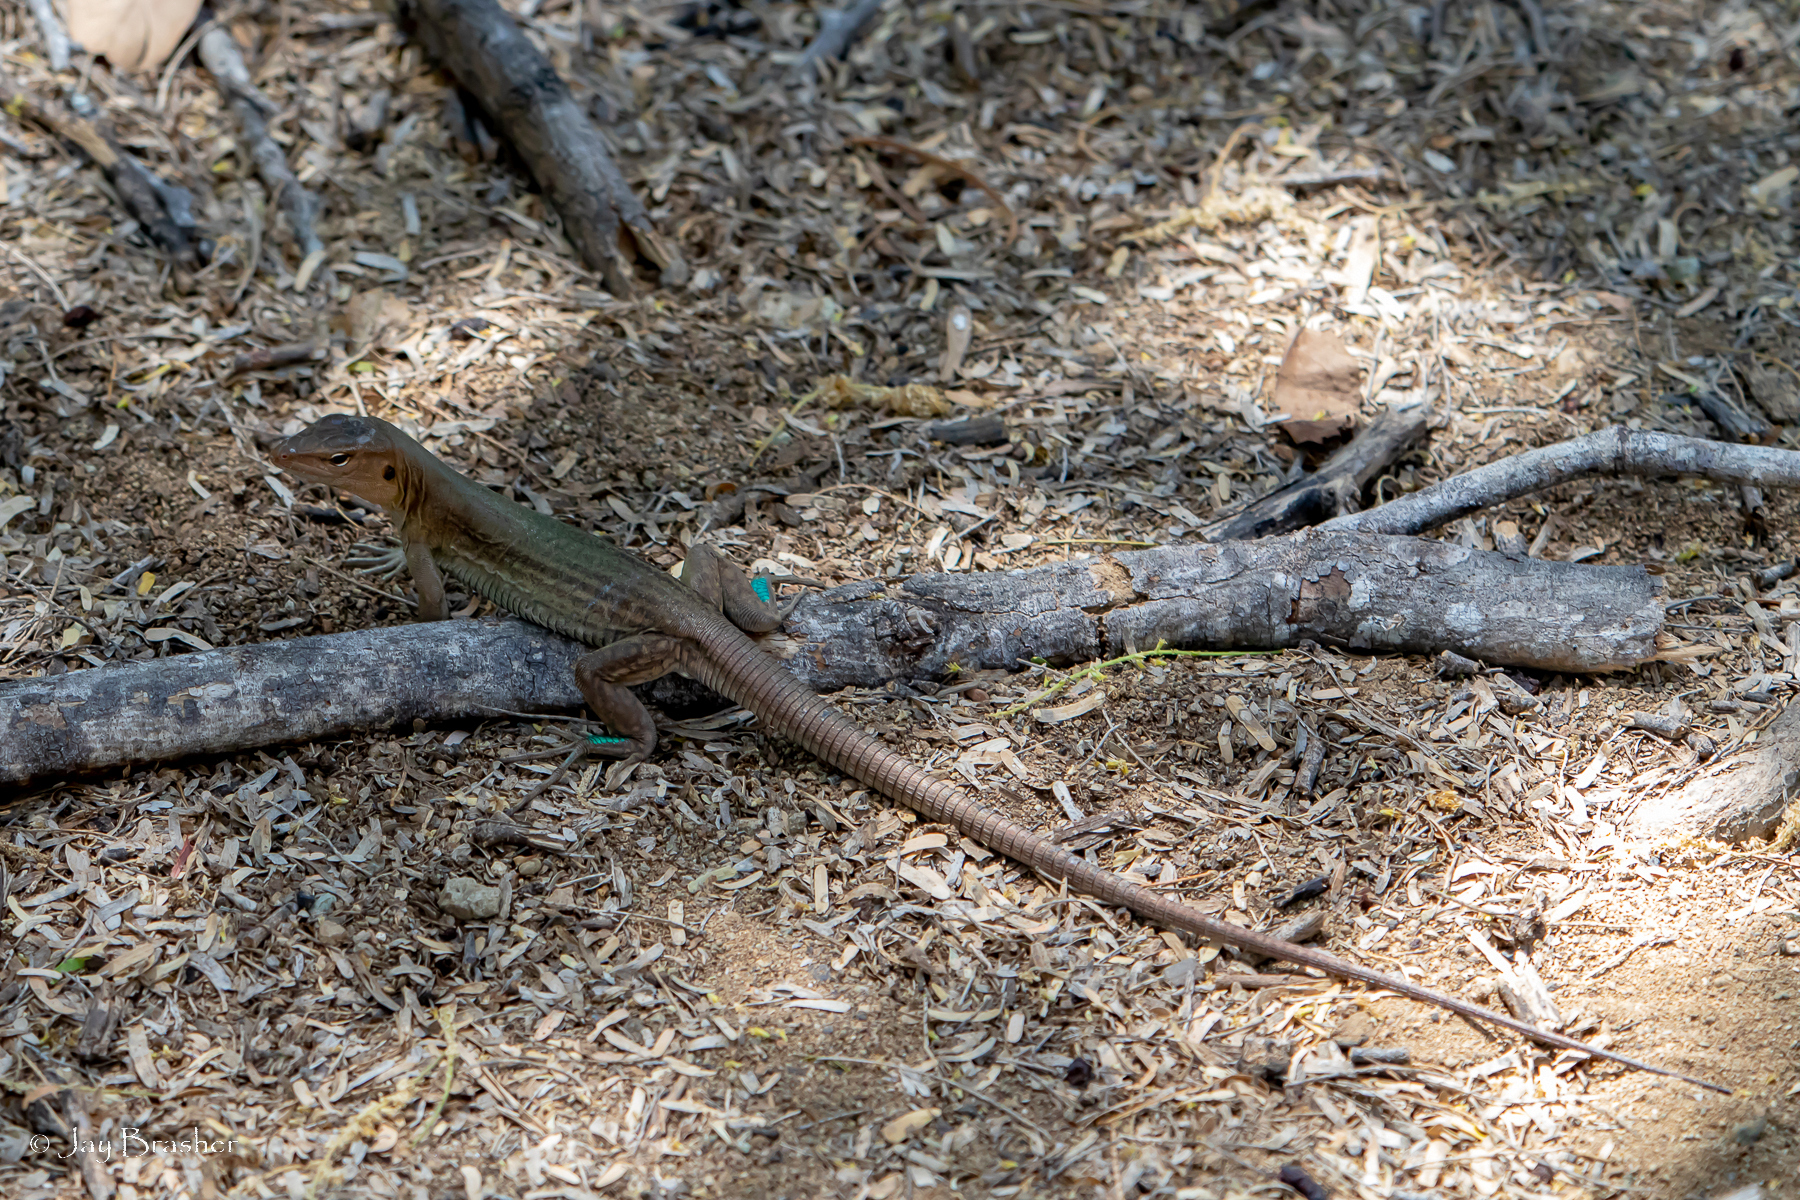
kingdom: Animalia
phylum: Chordata
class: Squamata
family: Teiidae
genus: Cnemidophorus
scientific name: Cnemidophorus ruthveni
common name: Bonaire whiptail
